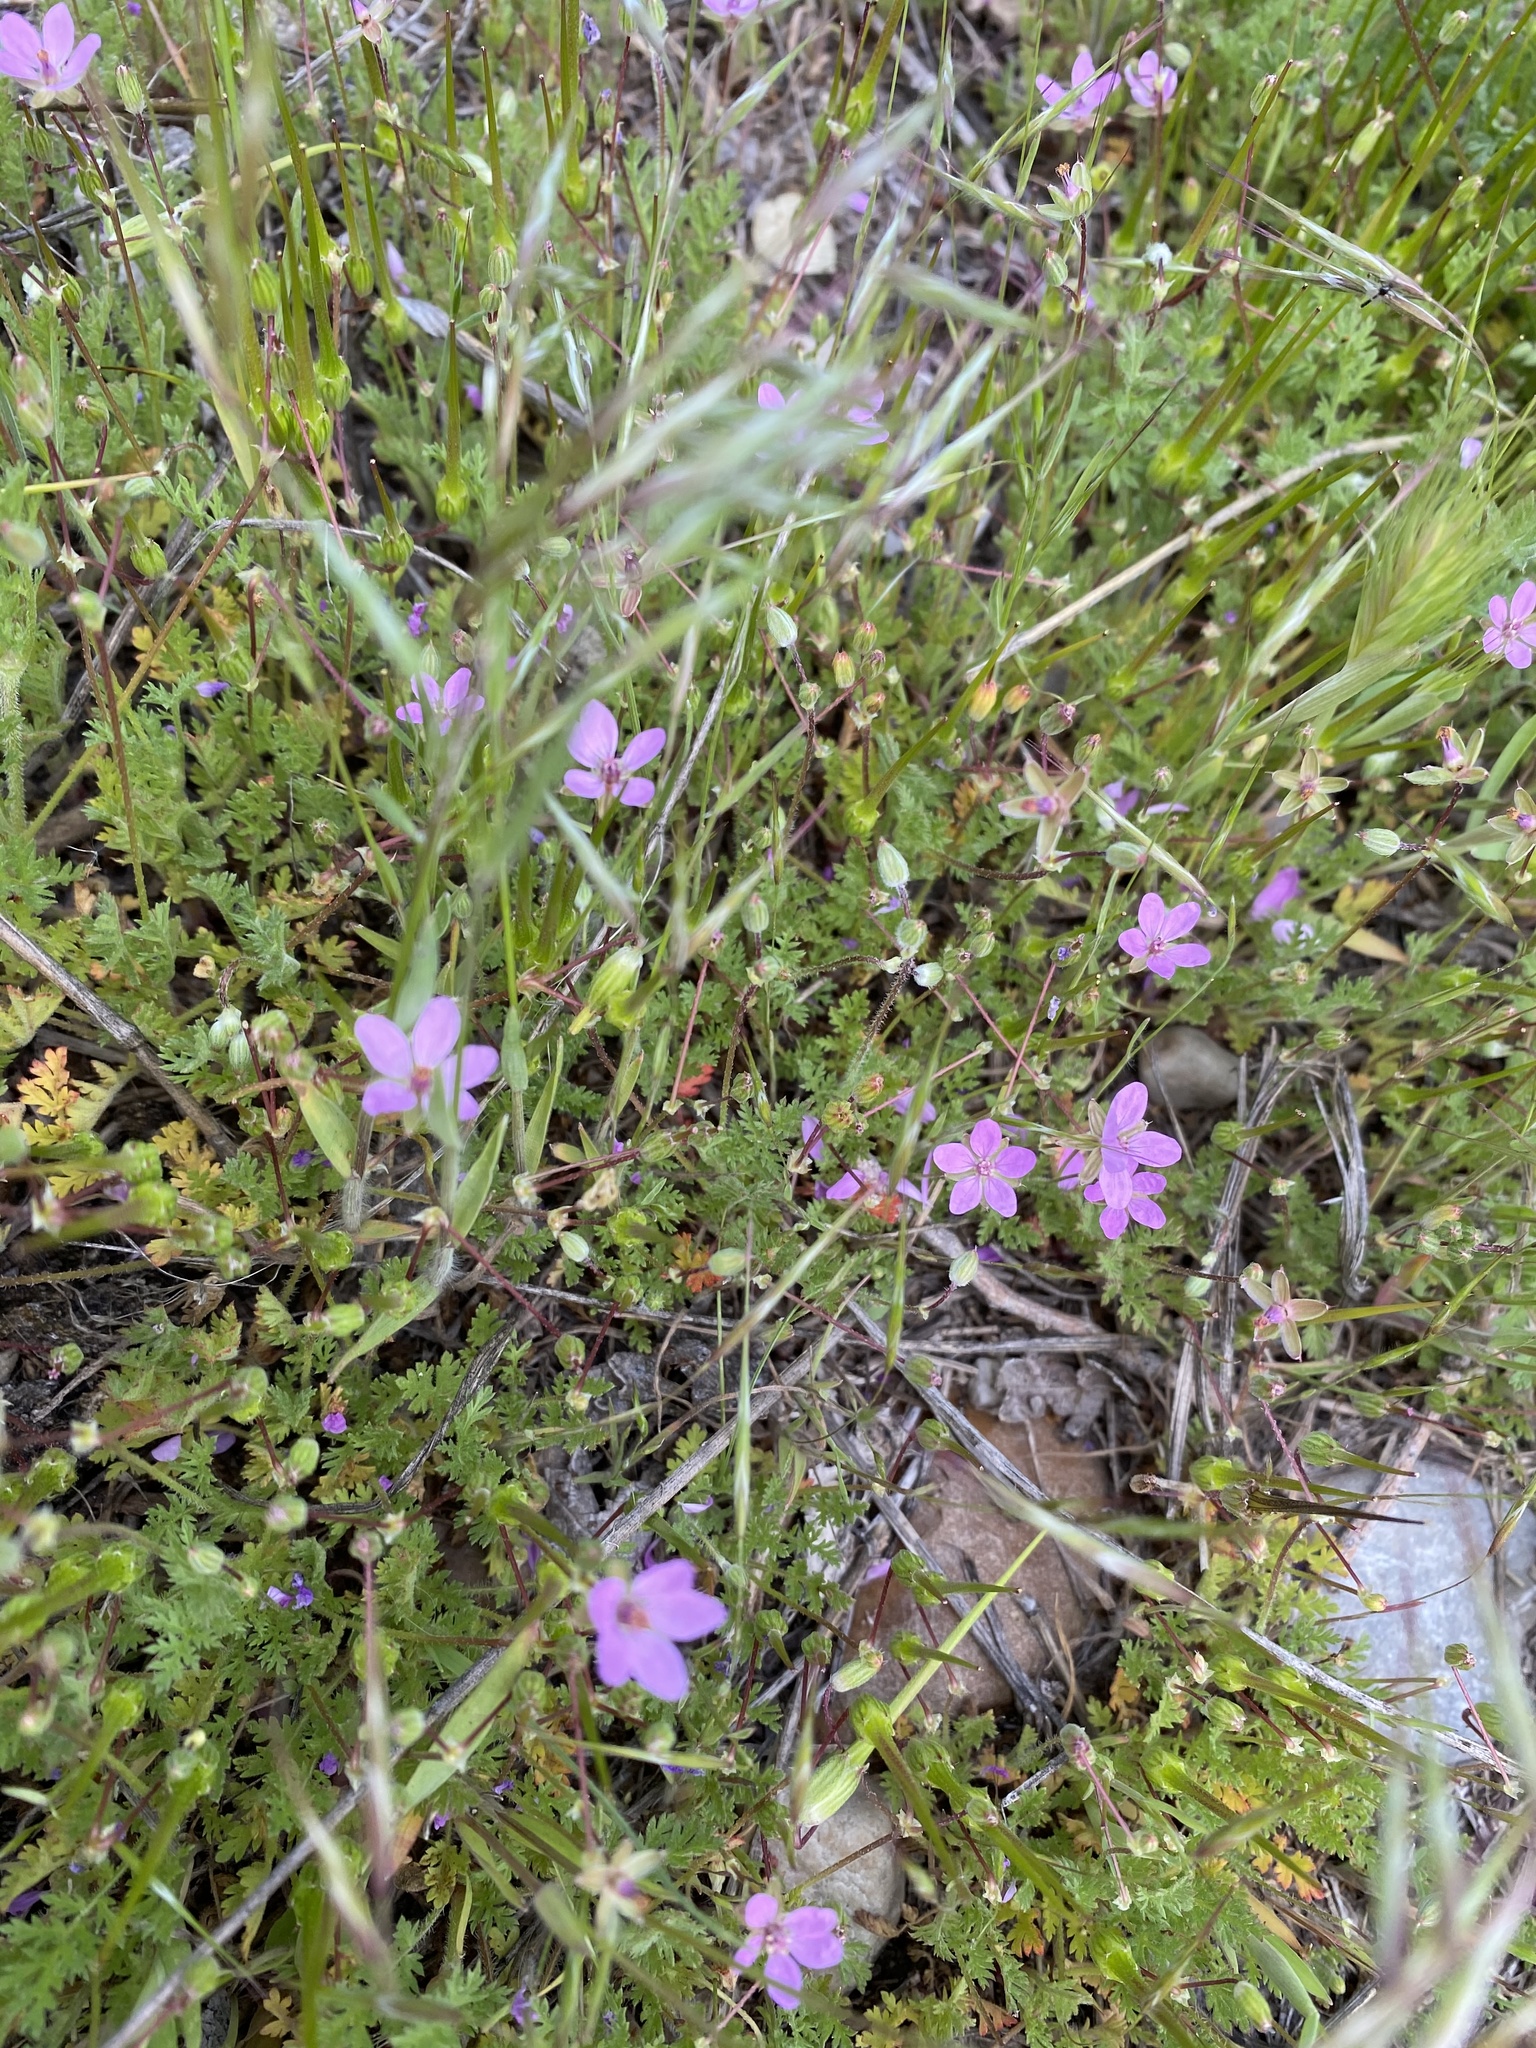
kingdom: Plantae
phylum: Tracheophyta
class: Magnoliopsida
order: Geraniales
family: Geraniaceae
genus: Erodium
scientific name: Erodium cicutarium
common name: Common stork's-bill
